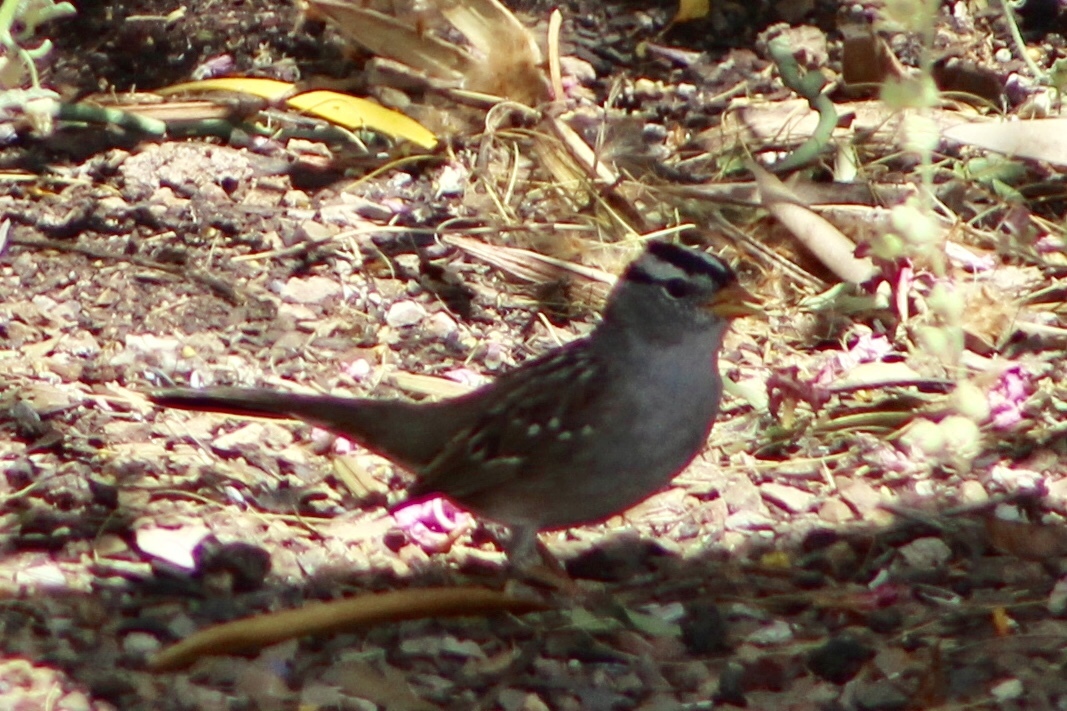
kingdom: Animalia
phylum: Chordata
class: Aves
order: Passeriformes
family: Passerellidae
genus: Zonotrichia
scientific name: Zonotrichia leucophrys
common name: White-crowned sparrow
